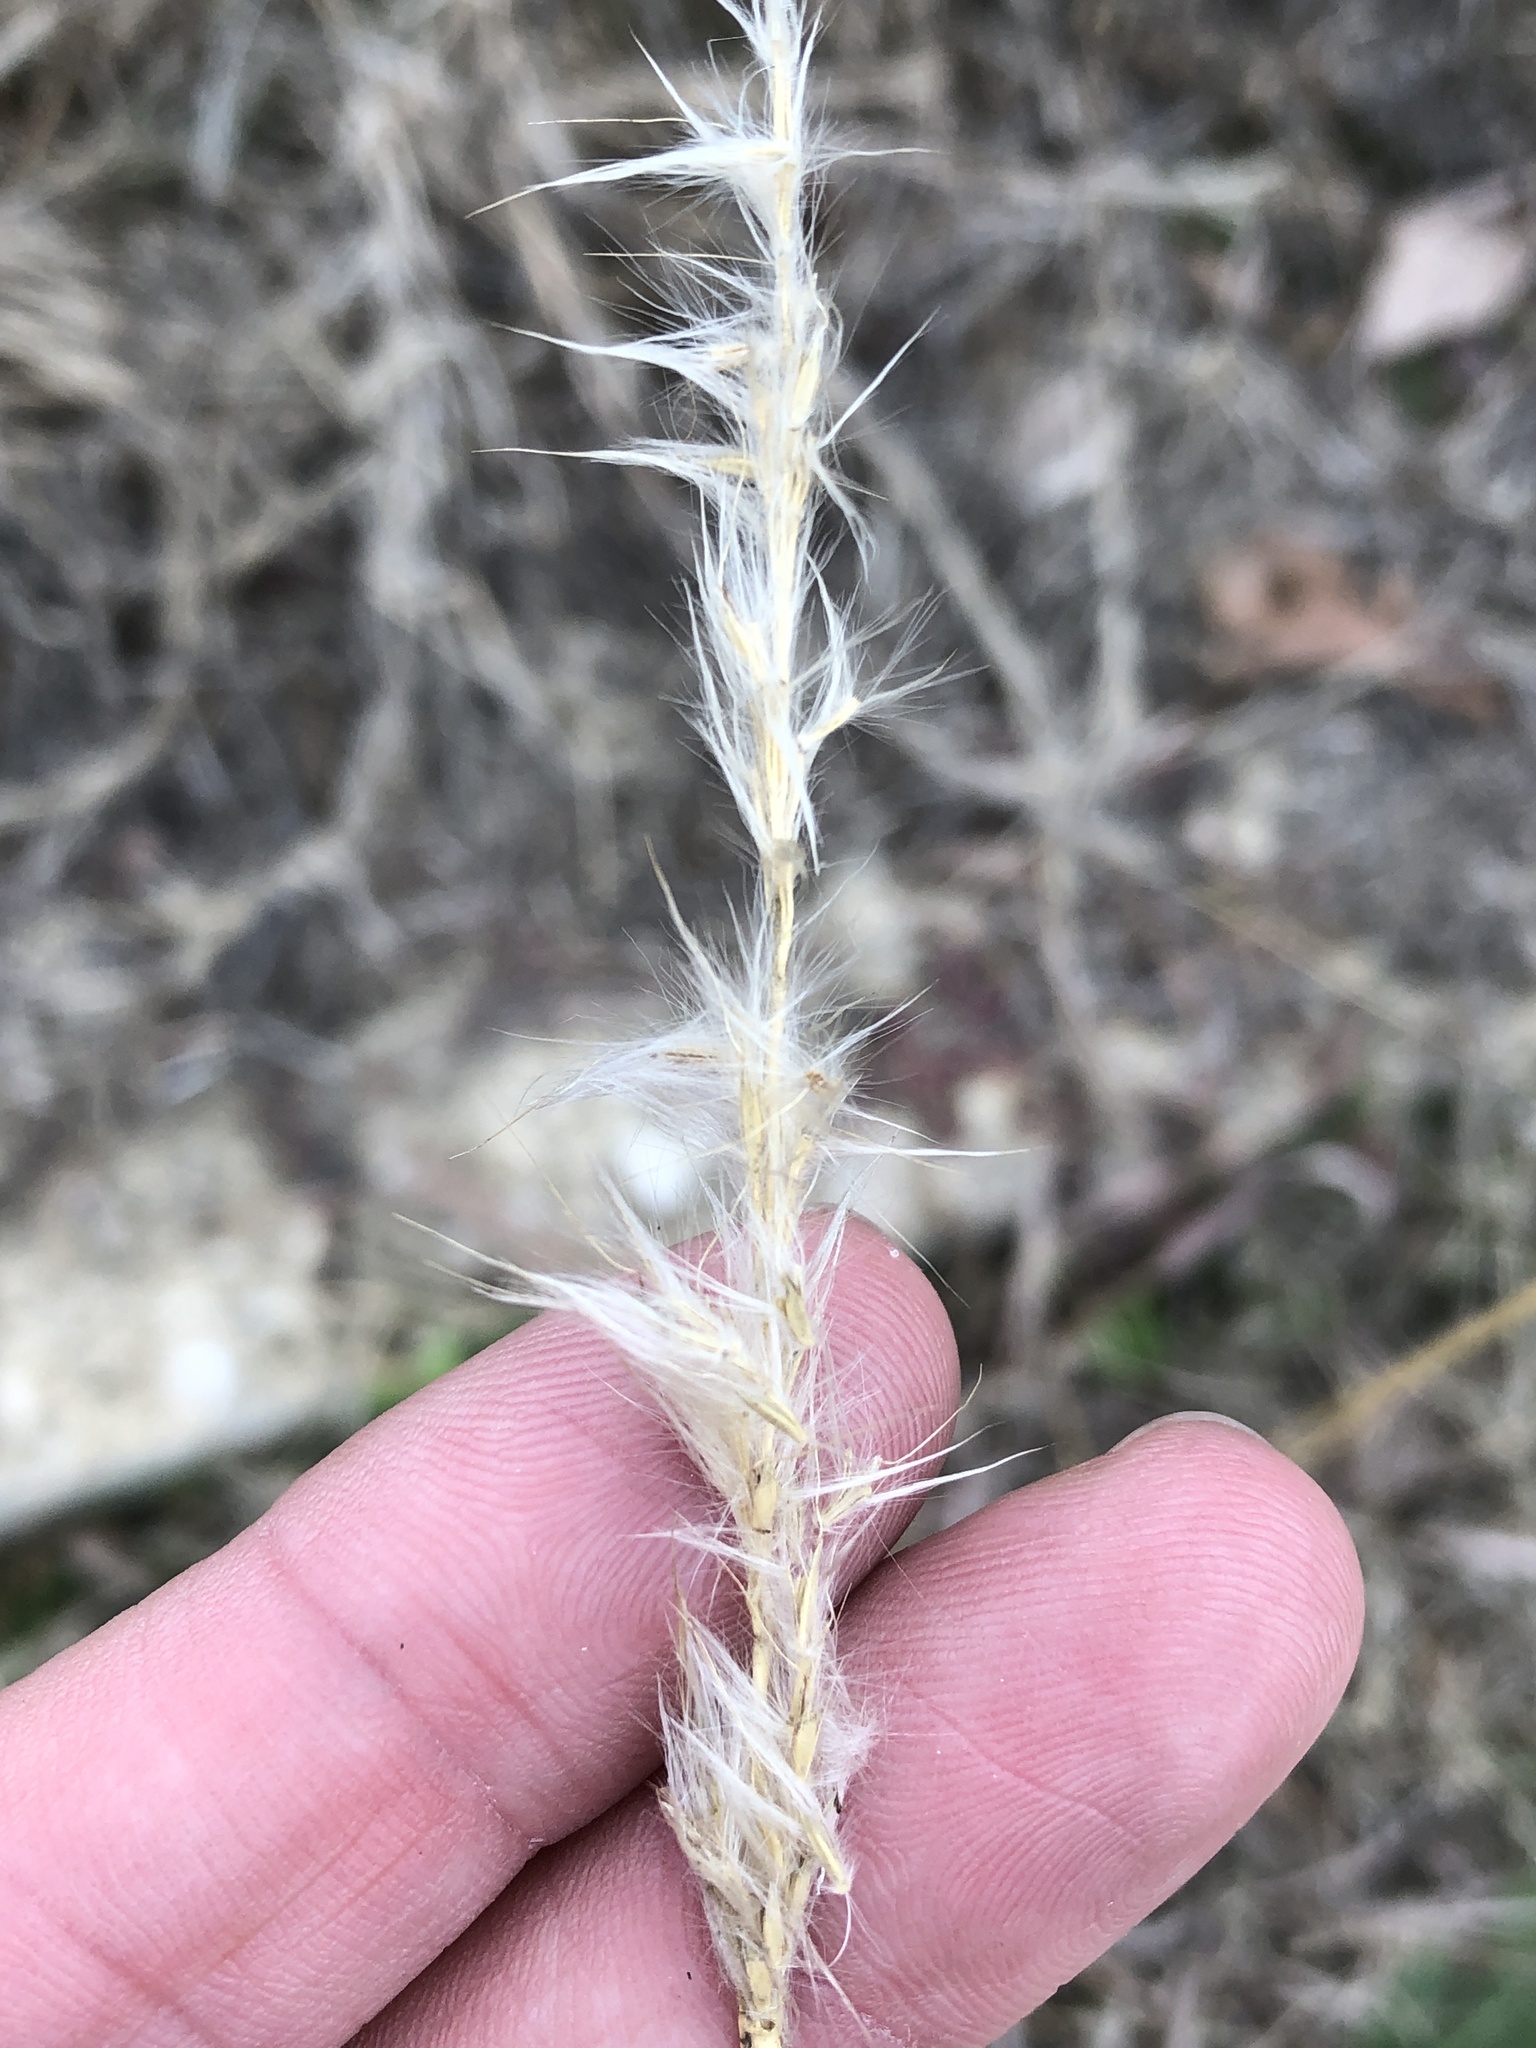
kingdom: Plantae
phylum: Tracheophyta
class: Liliopsida
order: Poales
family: Poaceae
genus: Bothriochloa
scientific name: Bothriochloa torreyana
